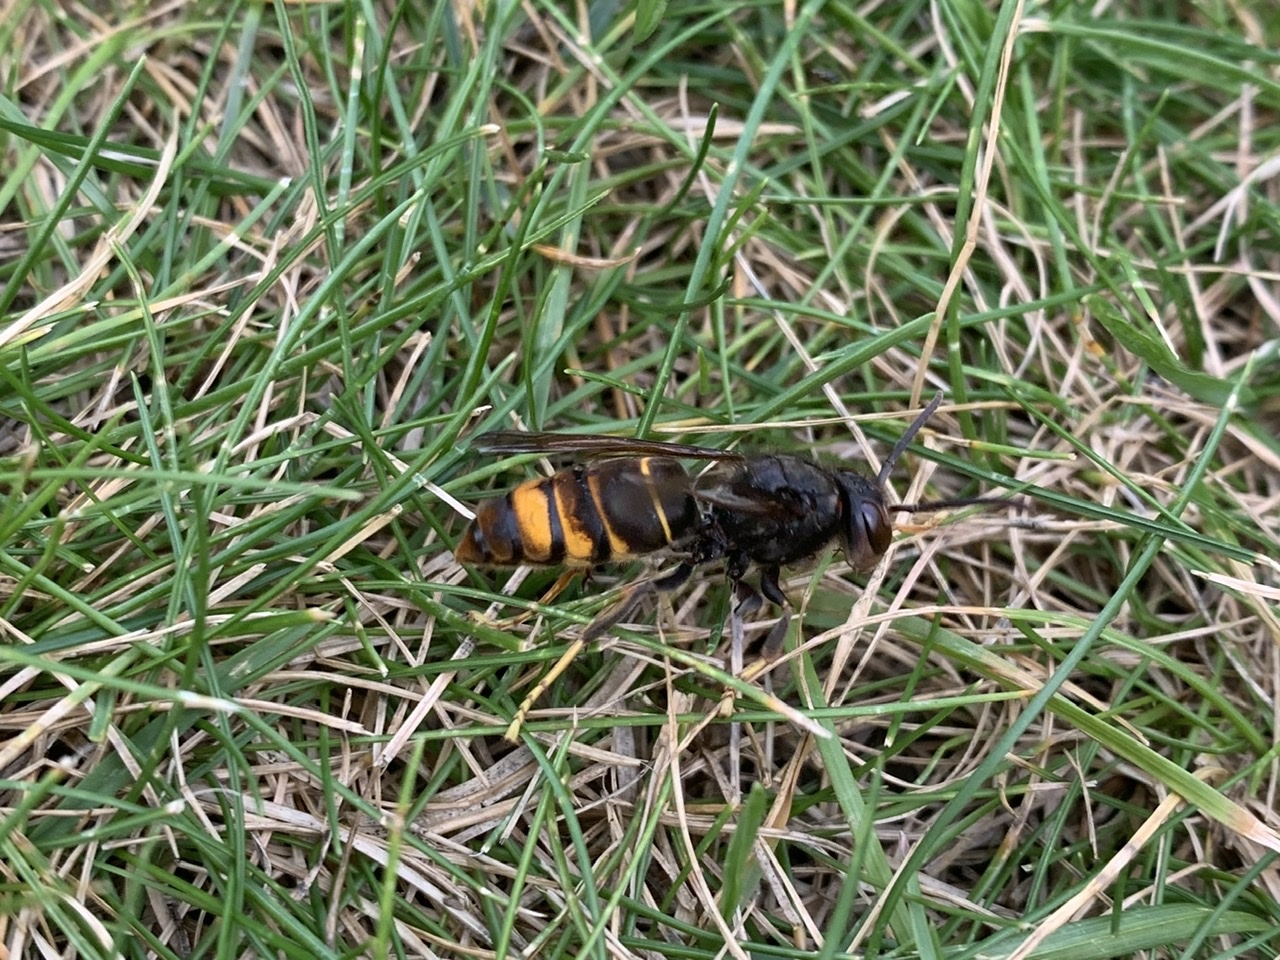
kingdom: Animalia
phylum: Arthropoda
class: Insecta
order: Hymenoptera
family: Vespidae
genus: Vespa
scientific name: Vespa velutina
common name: Asian hornet
